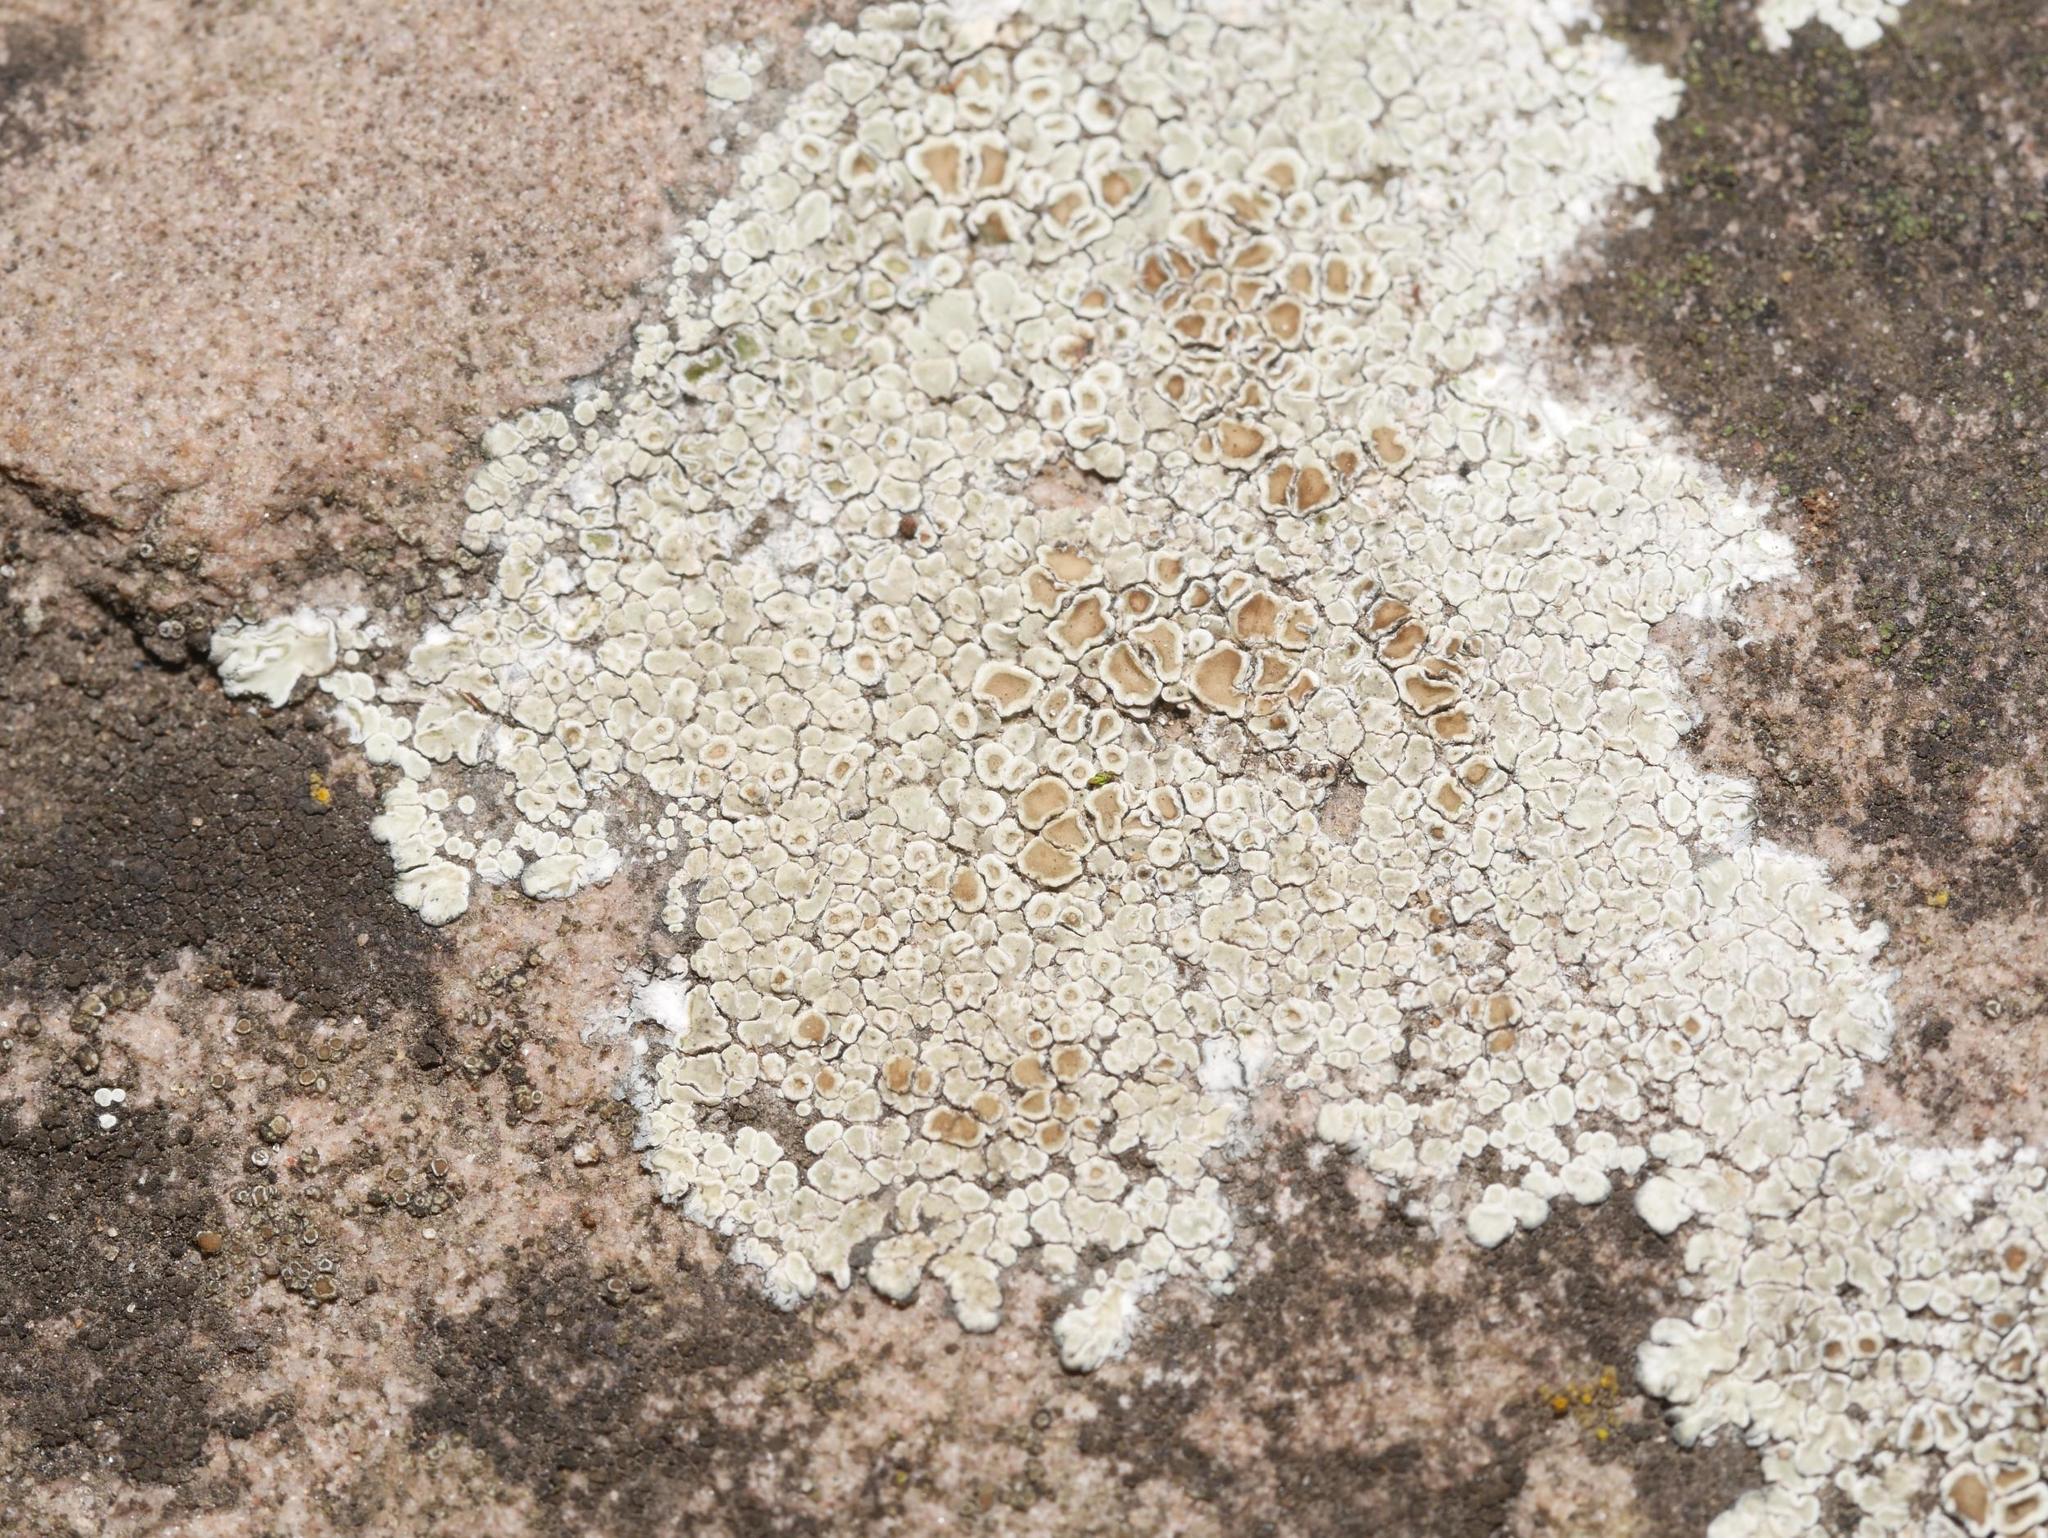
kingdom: Fungi
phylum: Ascomycota
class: Lecanoromycetes
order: Lecanorales
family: Lecanoraceae
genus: Protoparmeliopsis
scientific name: Protoparmeliopsis muralis
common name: Stonewall rim lichen
